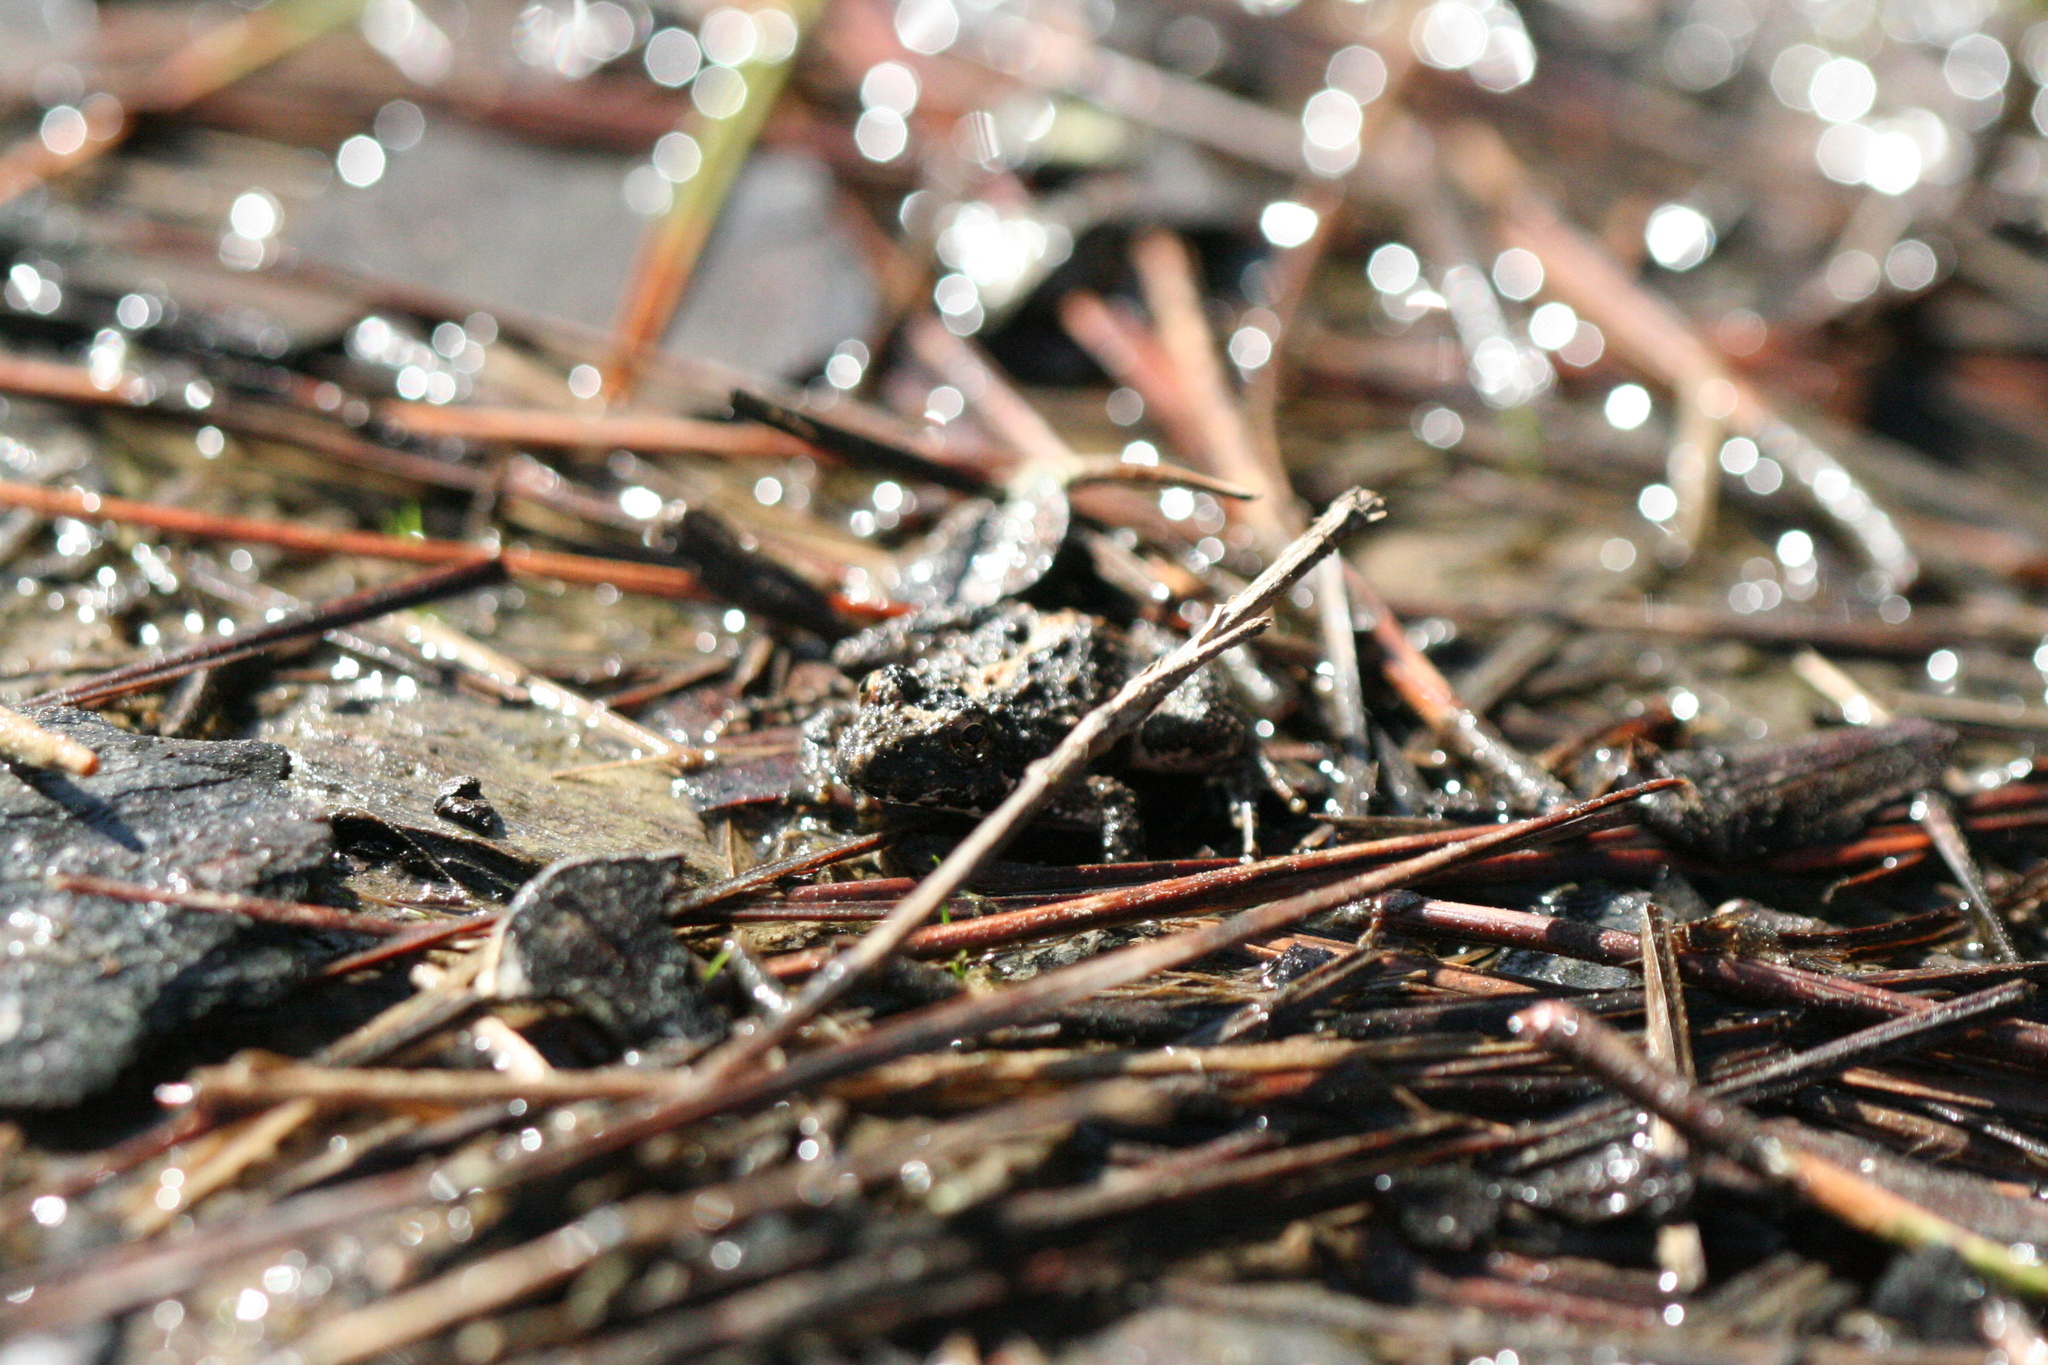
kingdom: Animalia
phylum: Chordata
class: Amphibia
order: Anura
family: Hylidae
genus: Acris
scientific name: Acris crepitans
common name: Northern cricket frog
